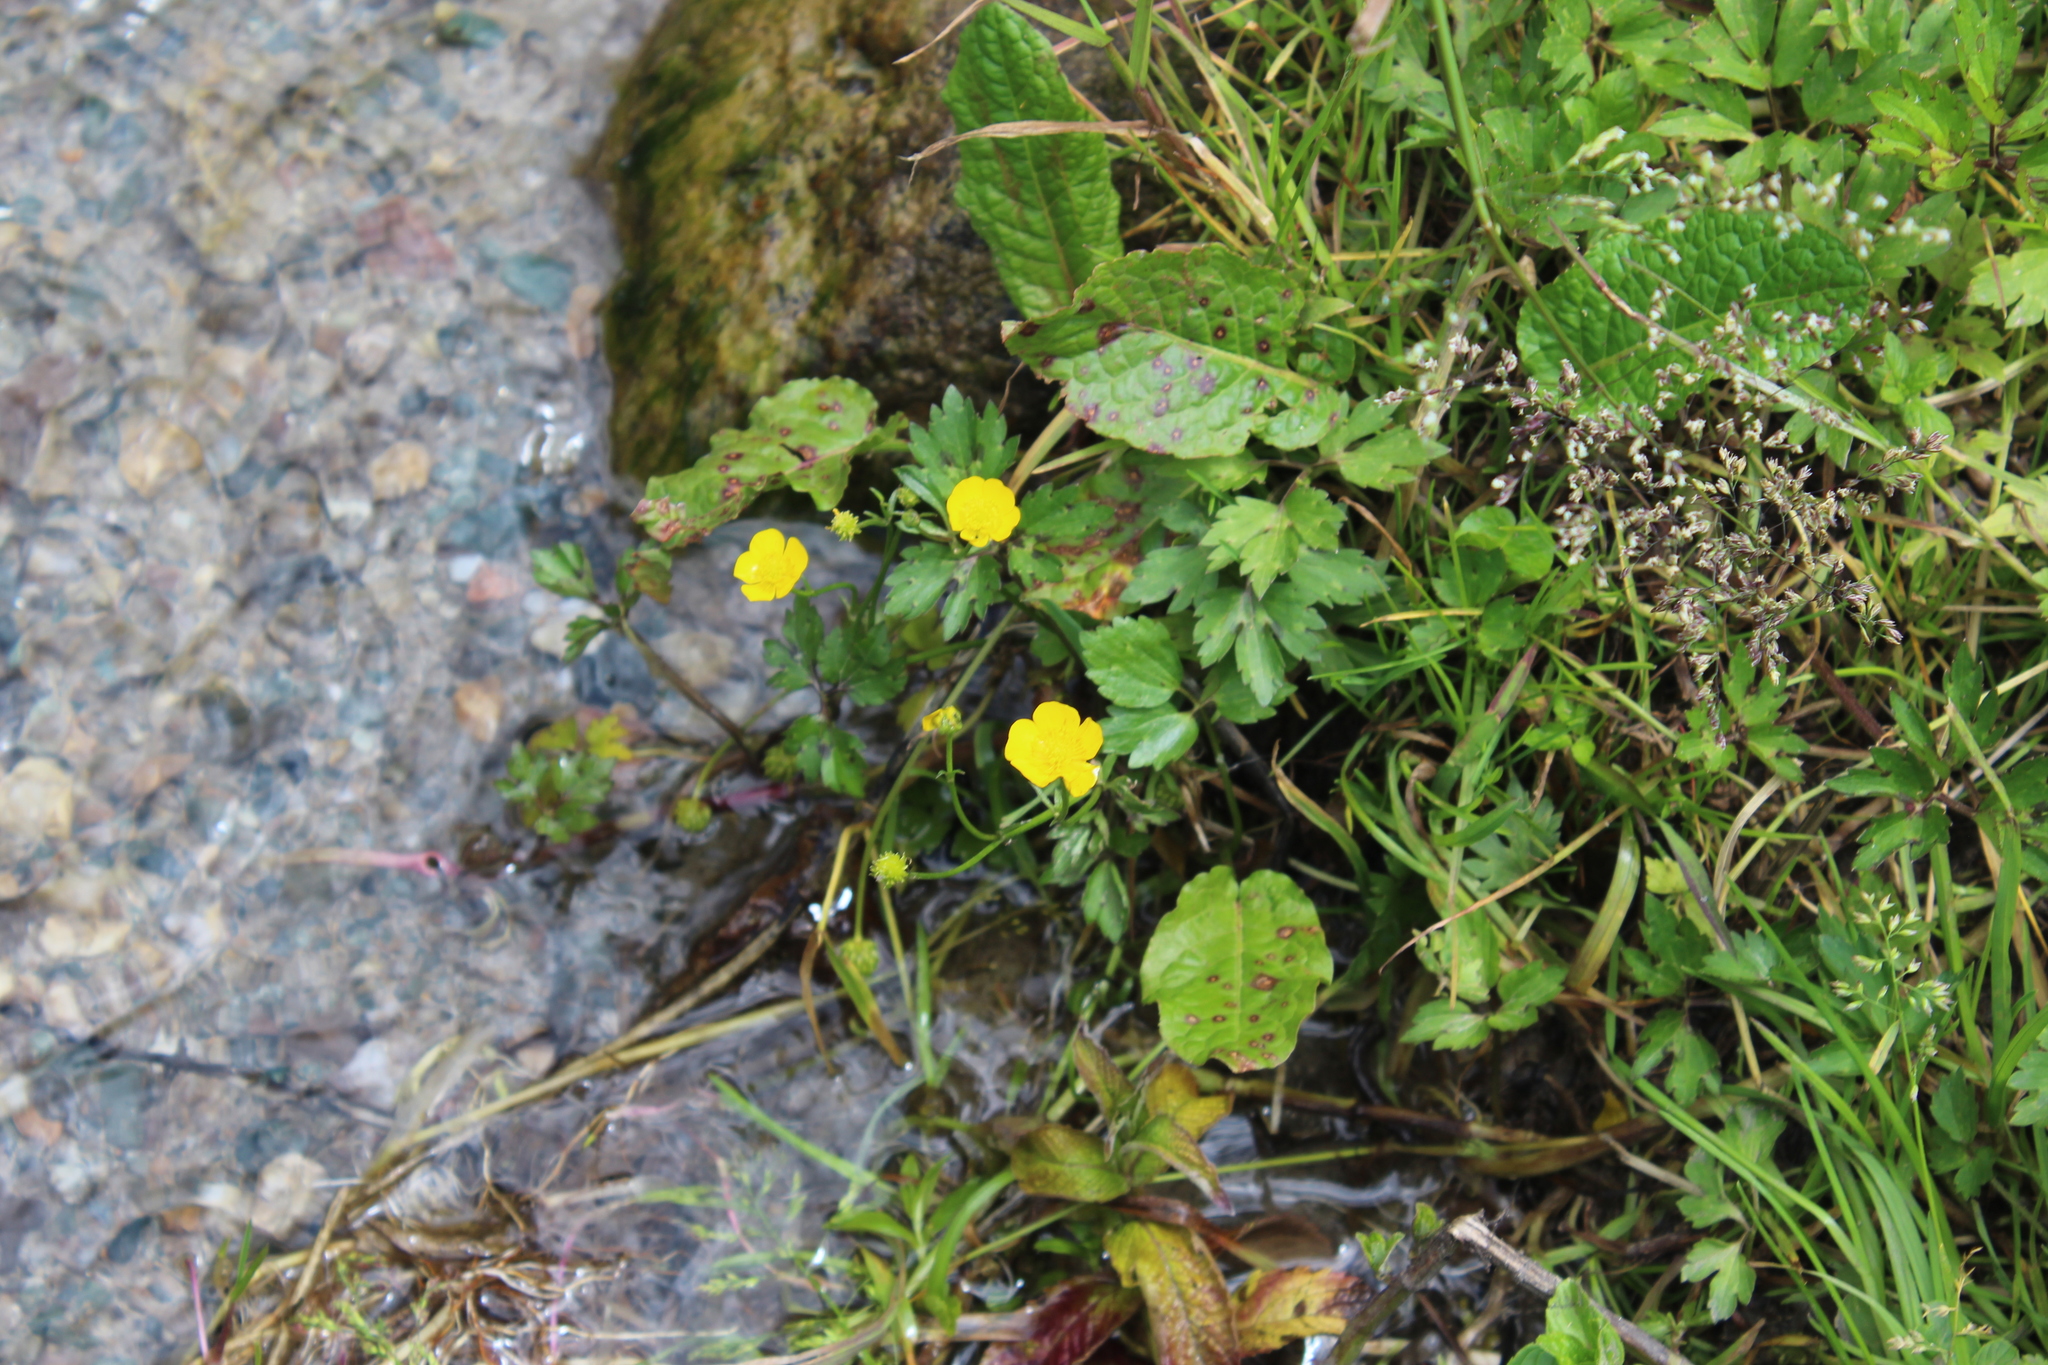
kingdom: Plantae
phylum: Tracheophyta
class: Magnoliopsida
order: Ranunculales
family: Ranunculaceae
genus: Ranunculus
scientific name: Ranunculus repens
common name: Creeping buttercup
